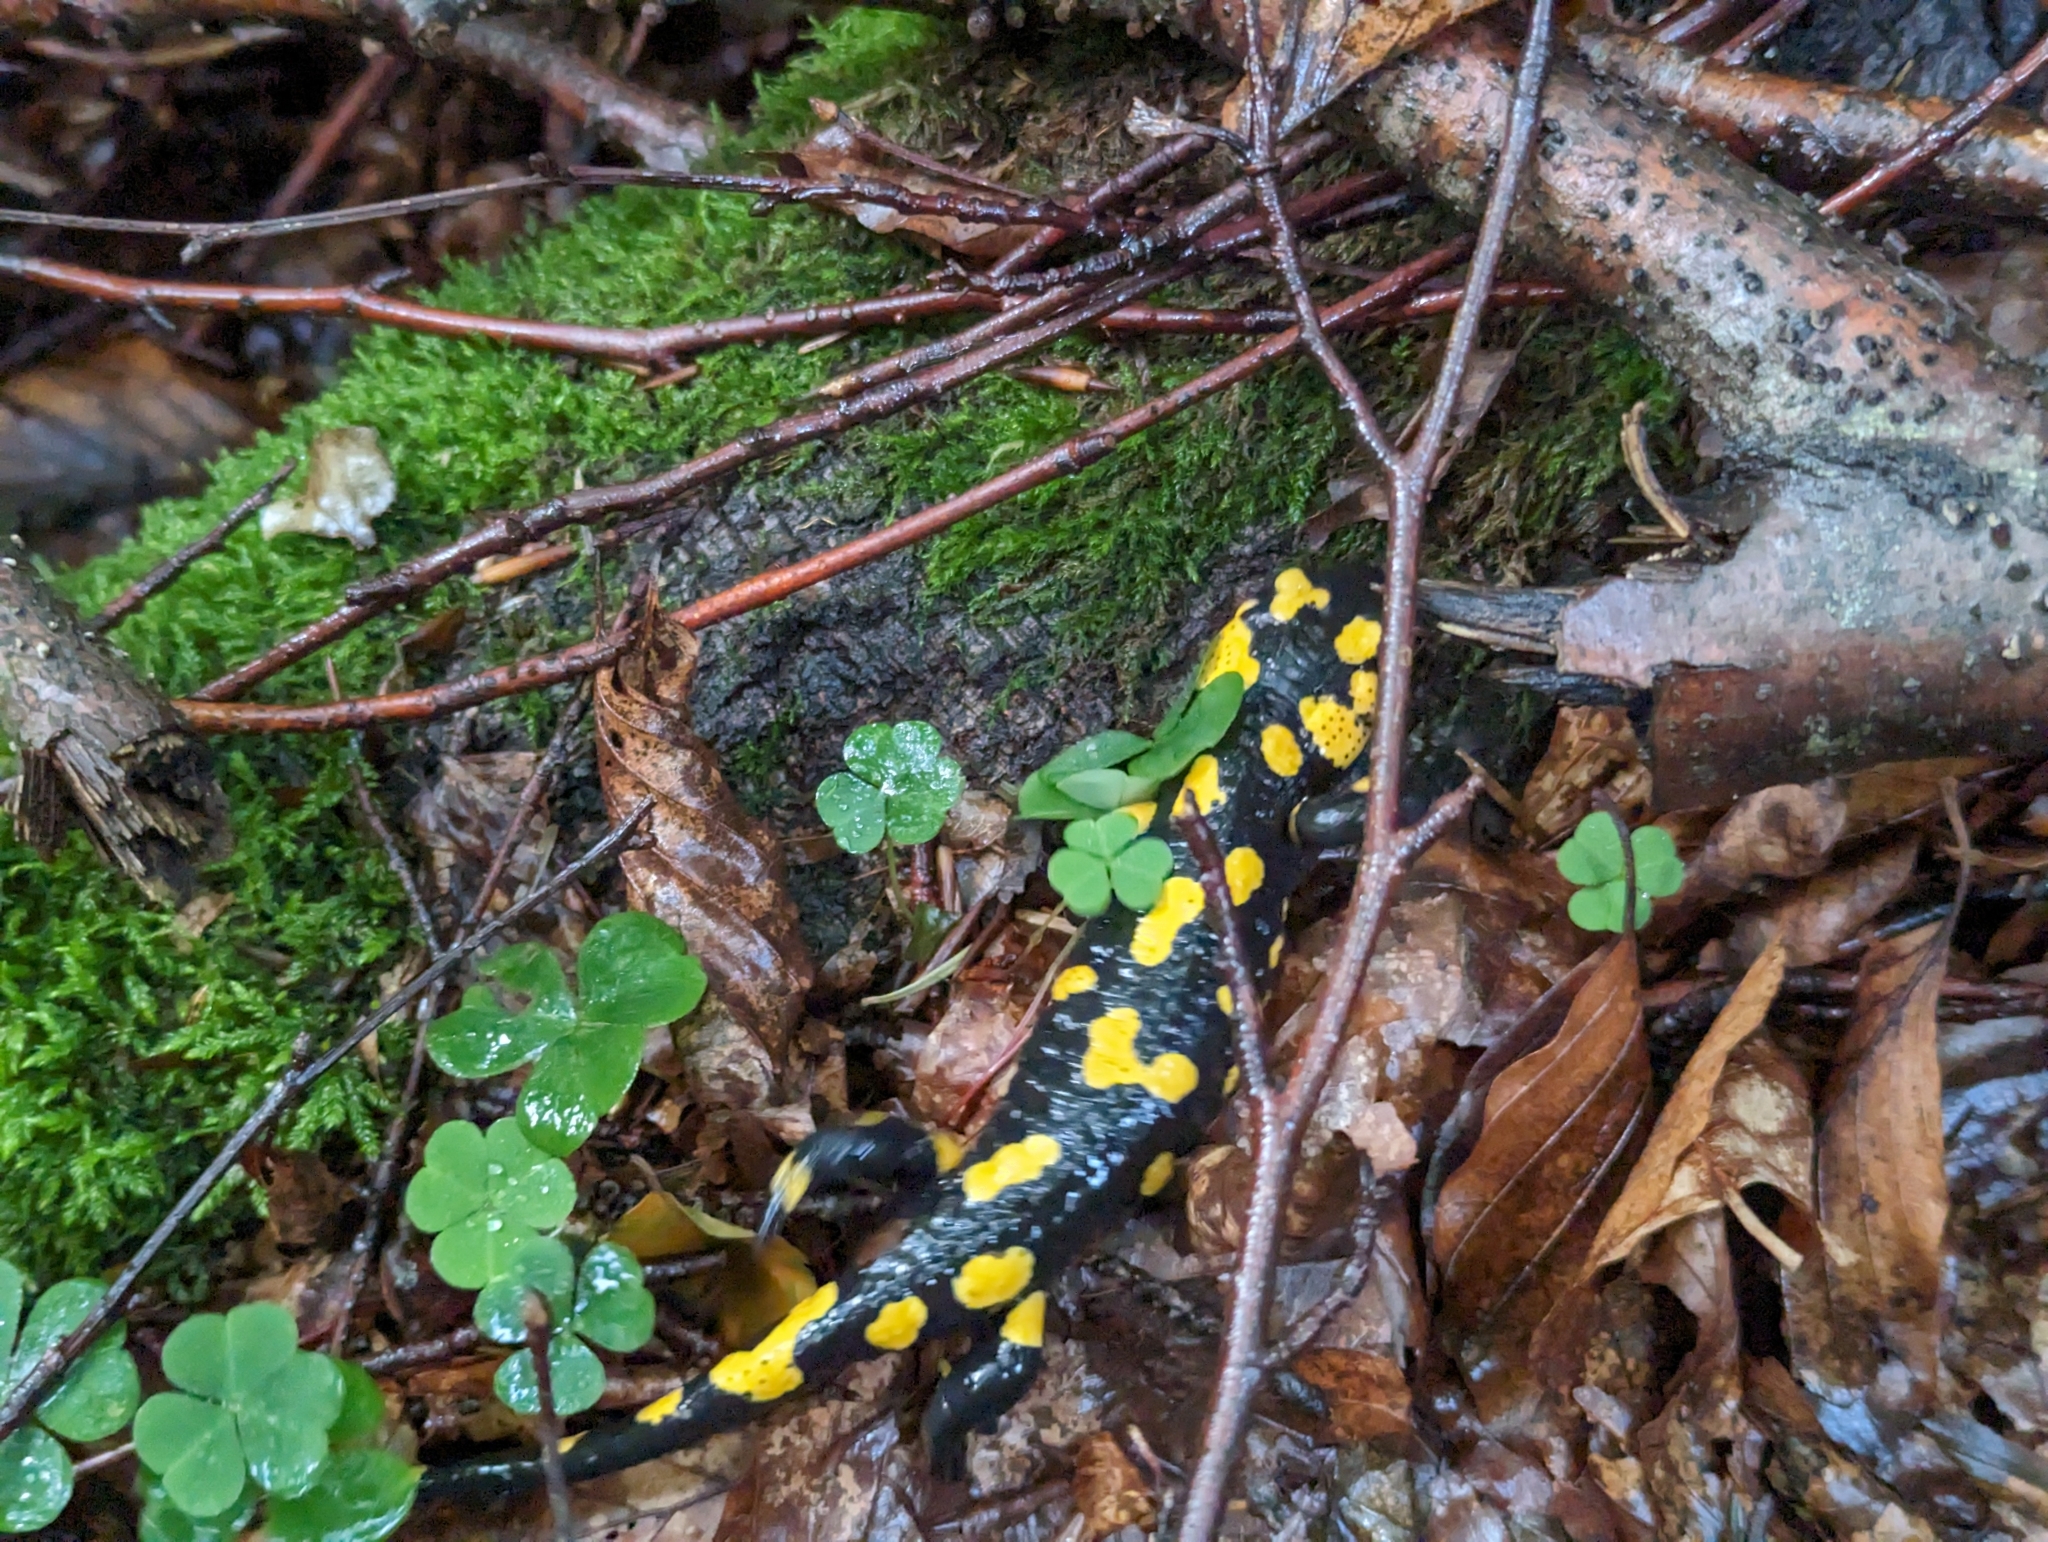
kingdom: Animalia
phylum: Chordata
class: Amphibia
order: Caudata
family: Salamandridae
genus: Salamandra
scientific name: Salamandra salamandra
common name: Fire salamander
